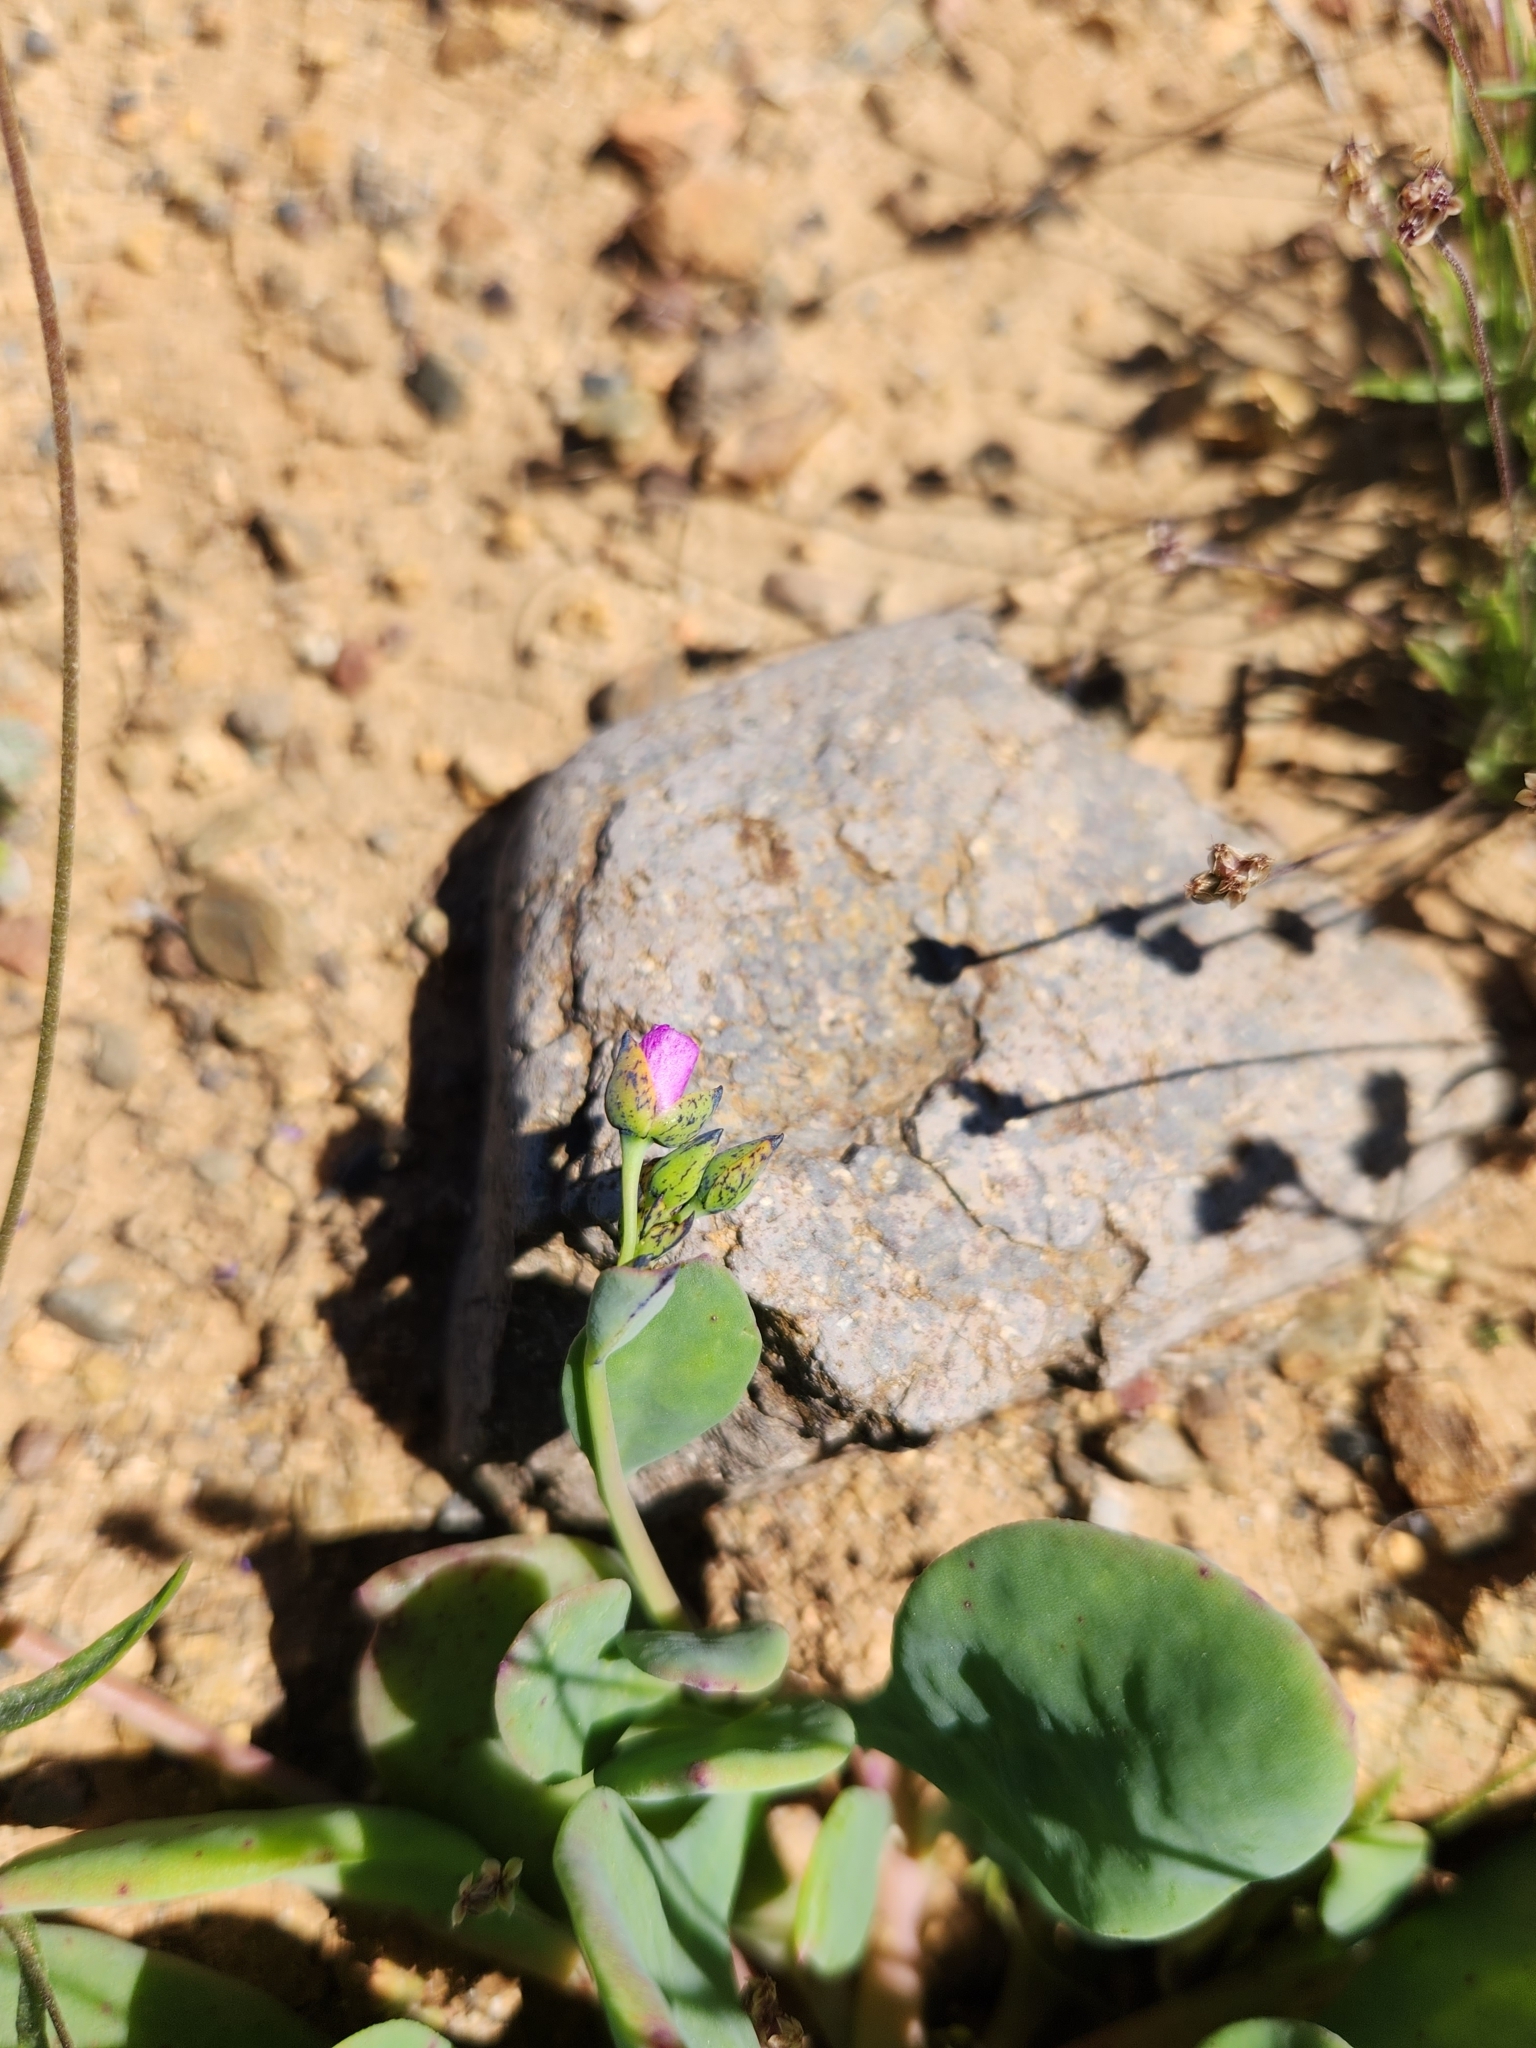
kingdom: Plantae
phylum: Tracheophyta
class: Magnoliopsida
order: Caryophyllales
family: Montiaceae
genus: Cistanthe
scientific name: Cistanthe maritima
